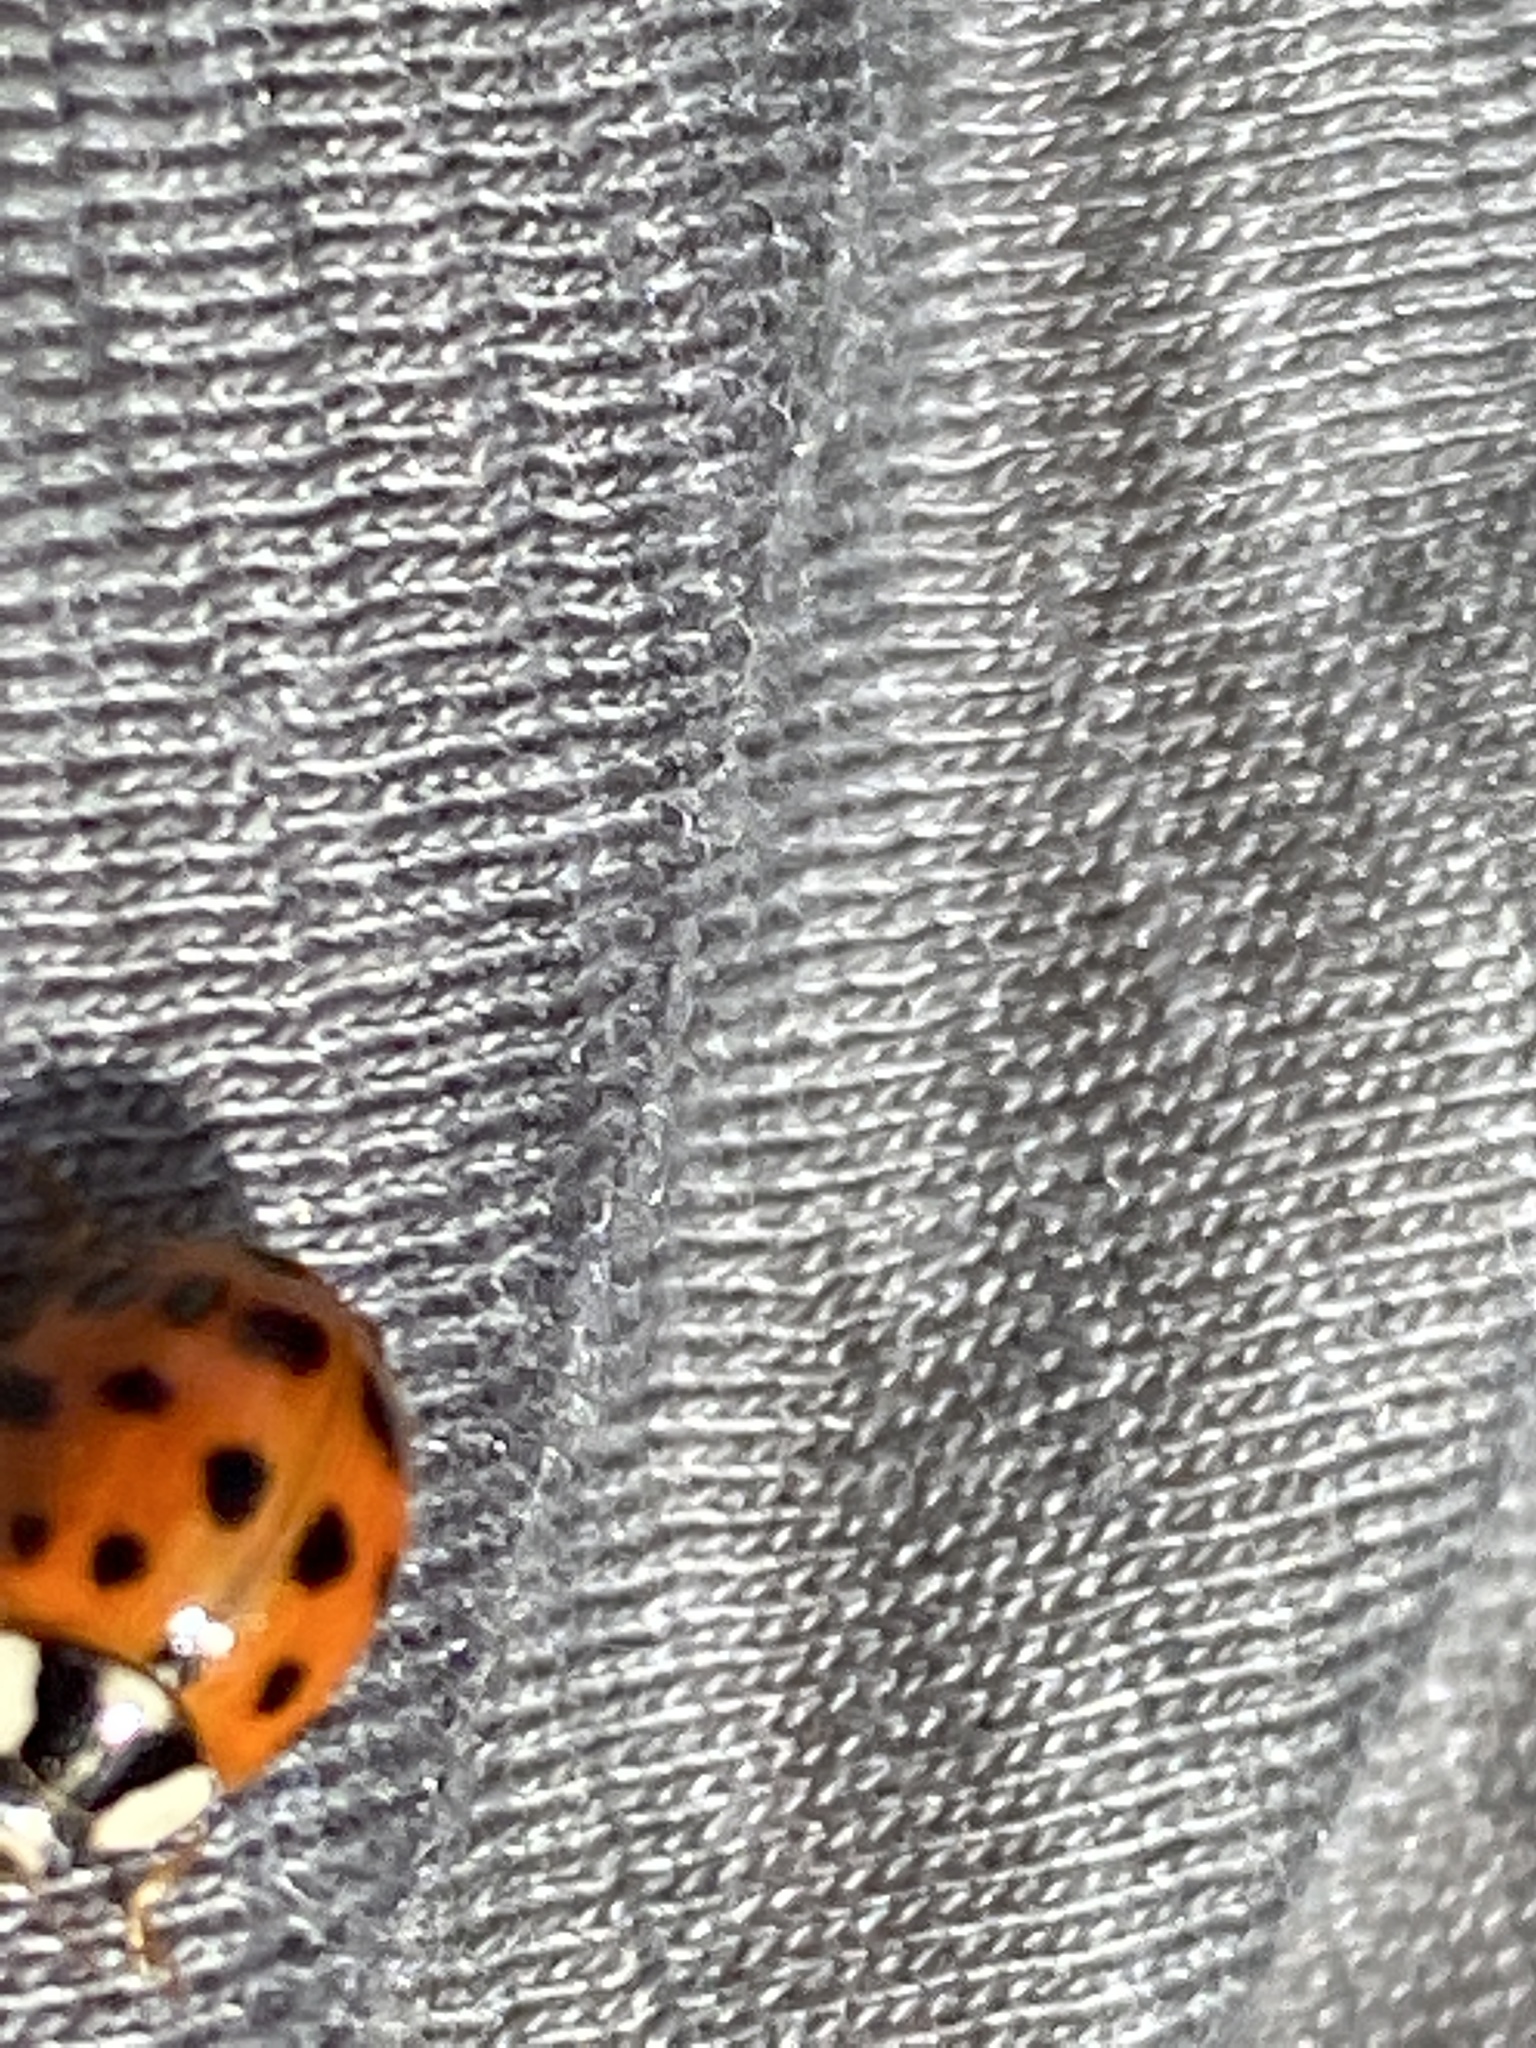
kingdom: Animalia
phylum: Arthropoda
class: Insecta
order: Coleoptera
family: Coccinellidae
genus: Harmonia
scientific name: Harmonia axyridis
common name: Harlequin ladybird
